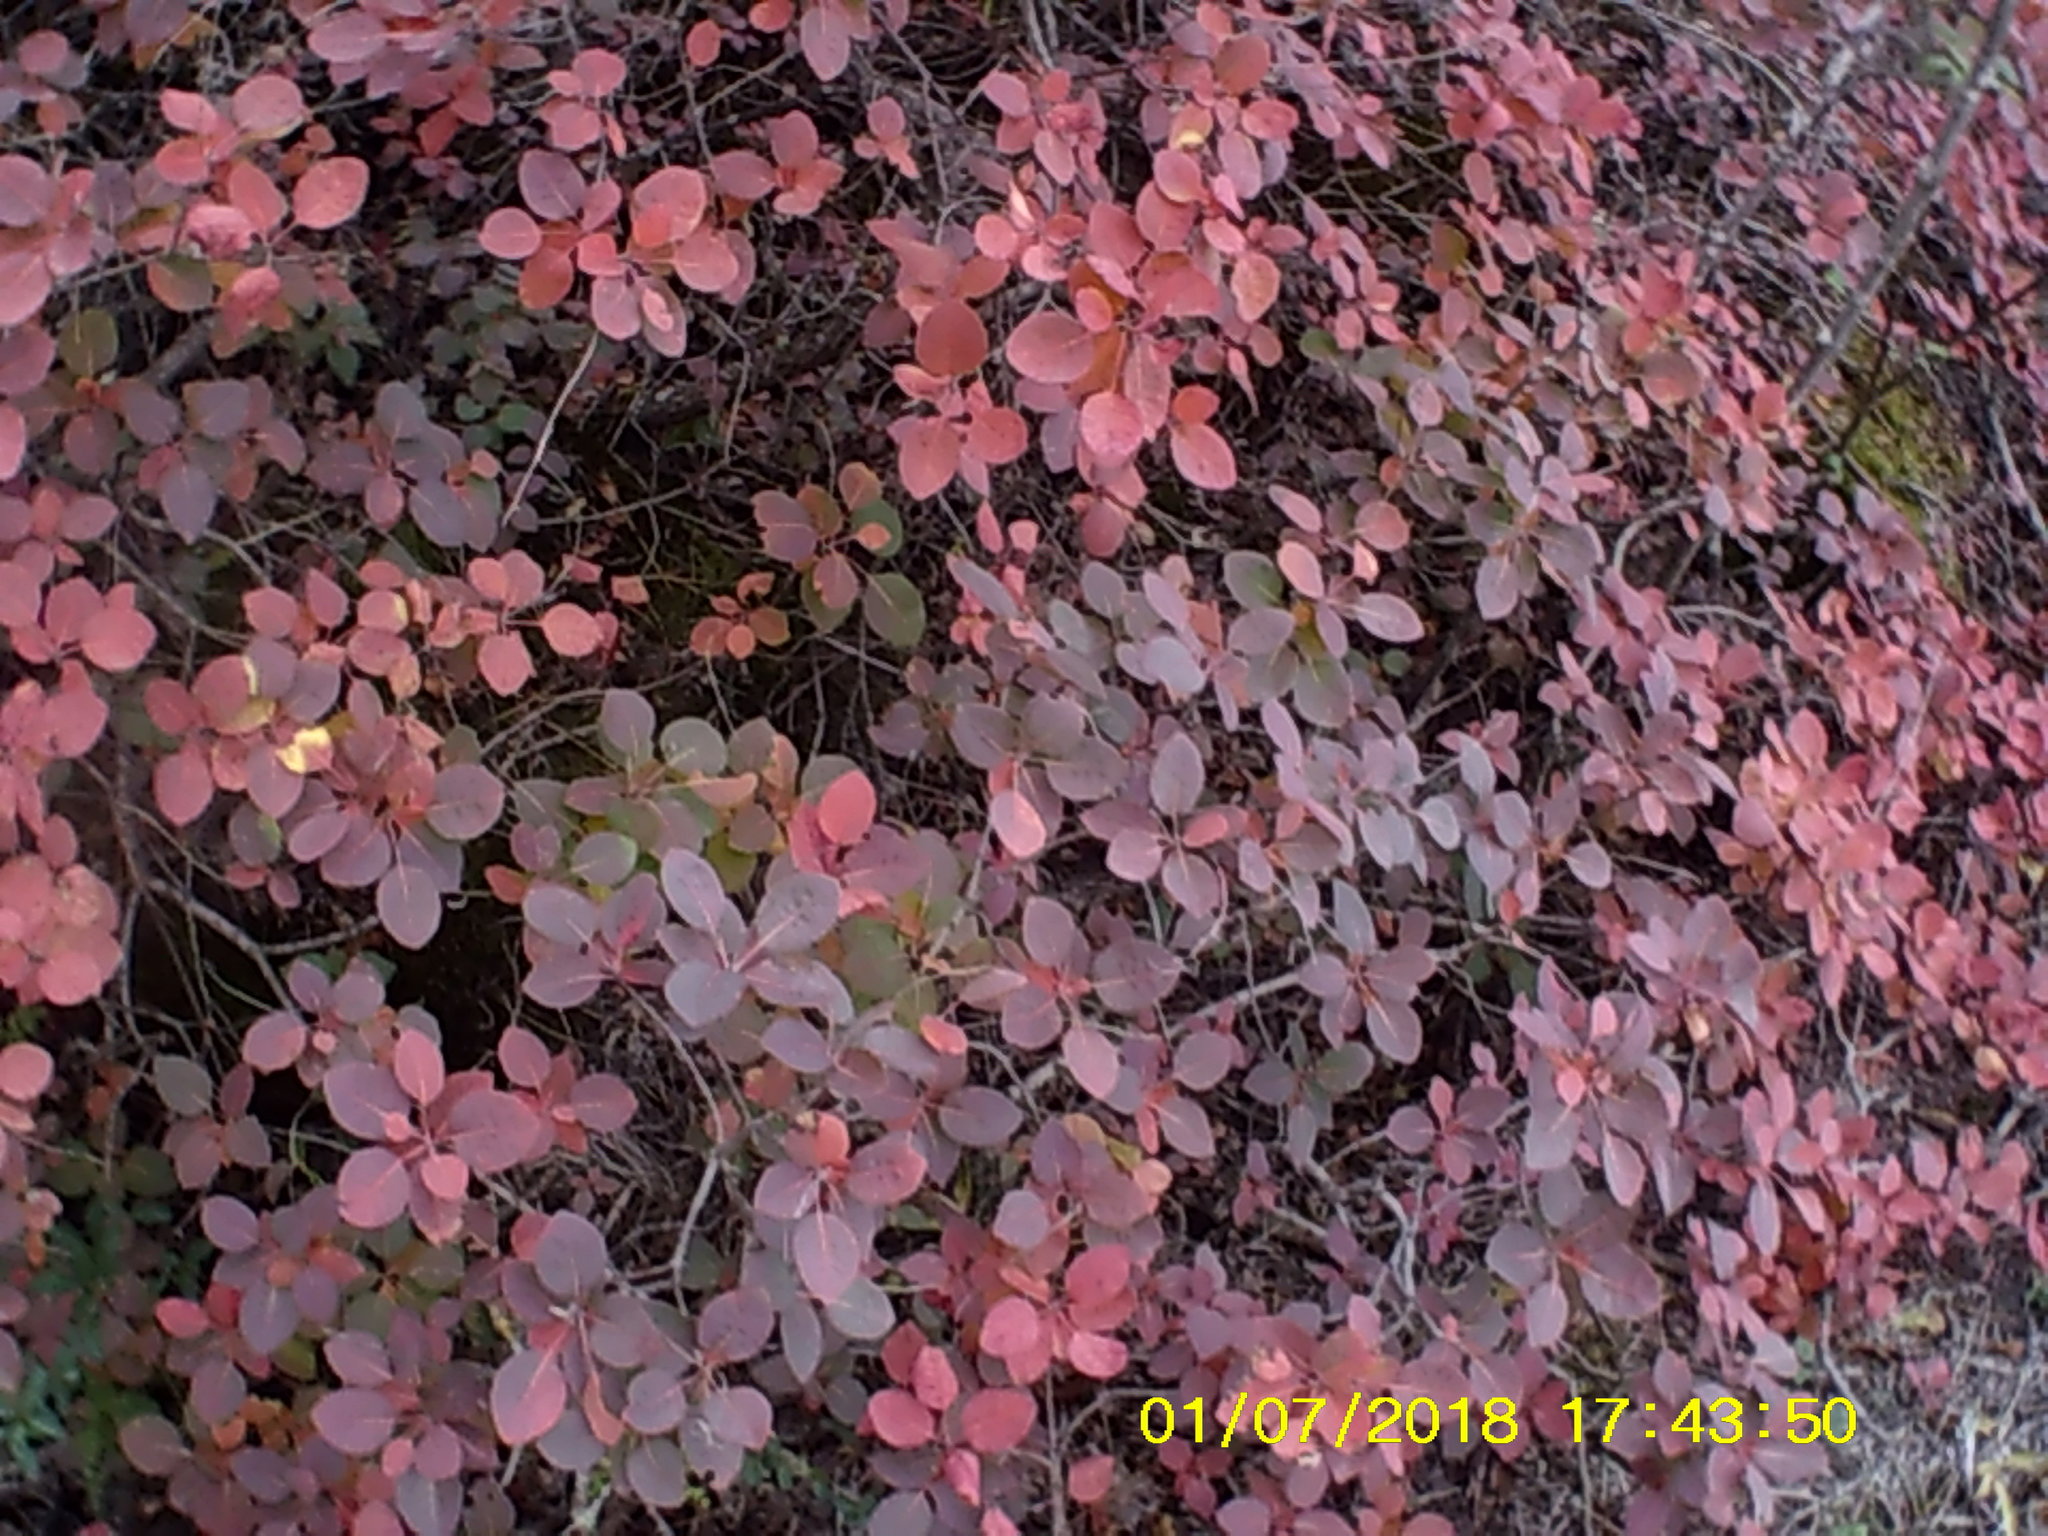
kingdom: Plantae
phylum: Tracheophyta
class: Magnoliopsida
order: Sapindales
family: Anacardiaceae
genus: Cotinus
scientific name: Cotinus coggygria
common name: Smoke-tree
